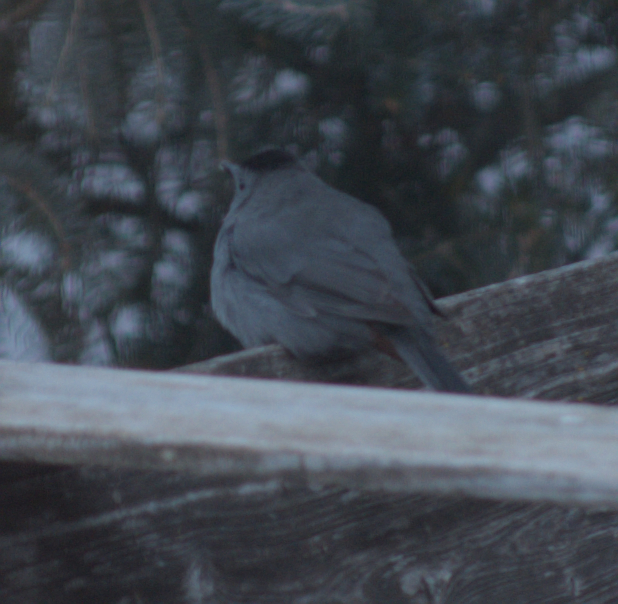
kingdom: Animalia
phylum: Chordata
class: Aves
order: Passeriformes
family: Mimidae
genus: Dumetella
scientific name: Dumetella carolinensis
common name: Gray catbird
